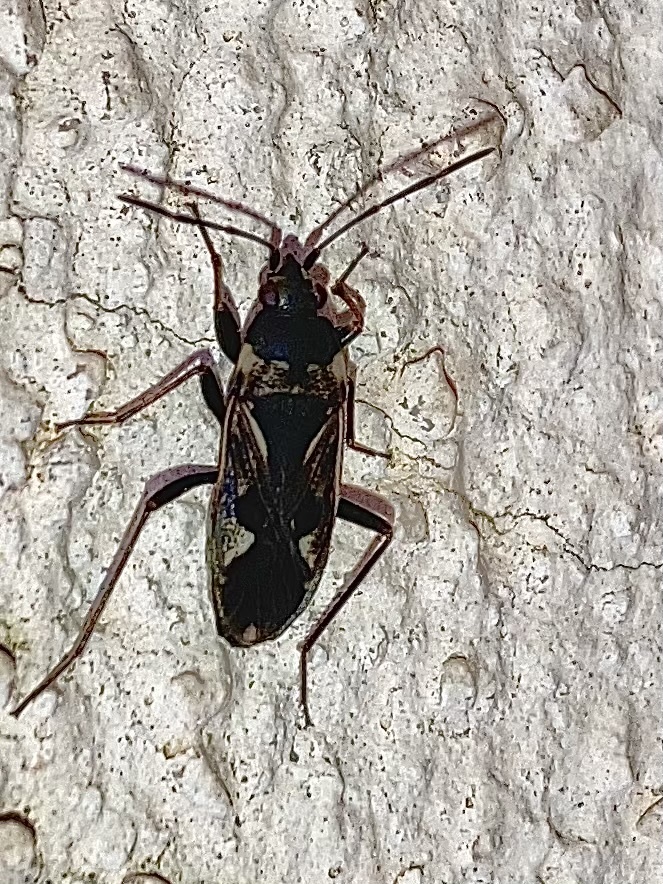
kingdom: Animalia
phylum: Arthropoda
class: Insecta
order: Hemiptera
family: Rhyparochromidae
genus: Rhyparochromus
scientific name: Rhyparochromus vulgaris
